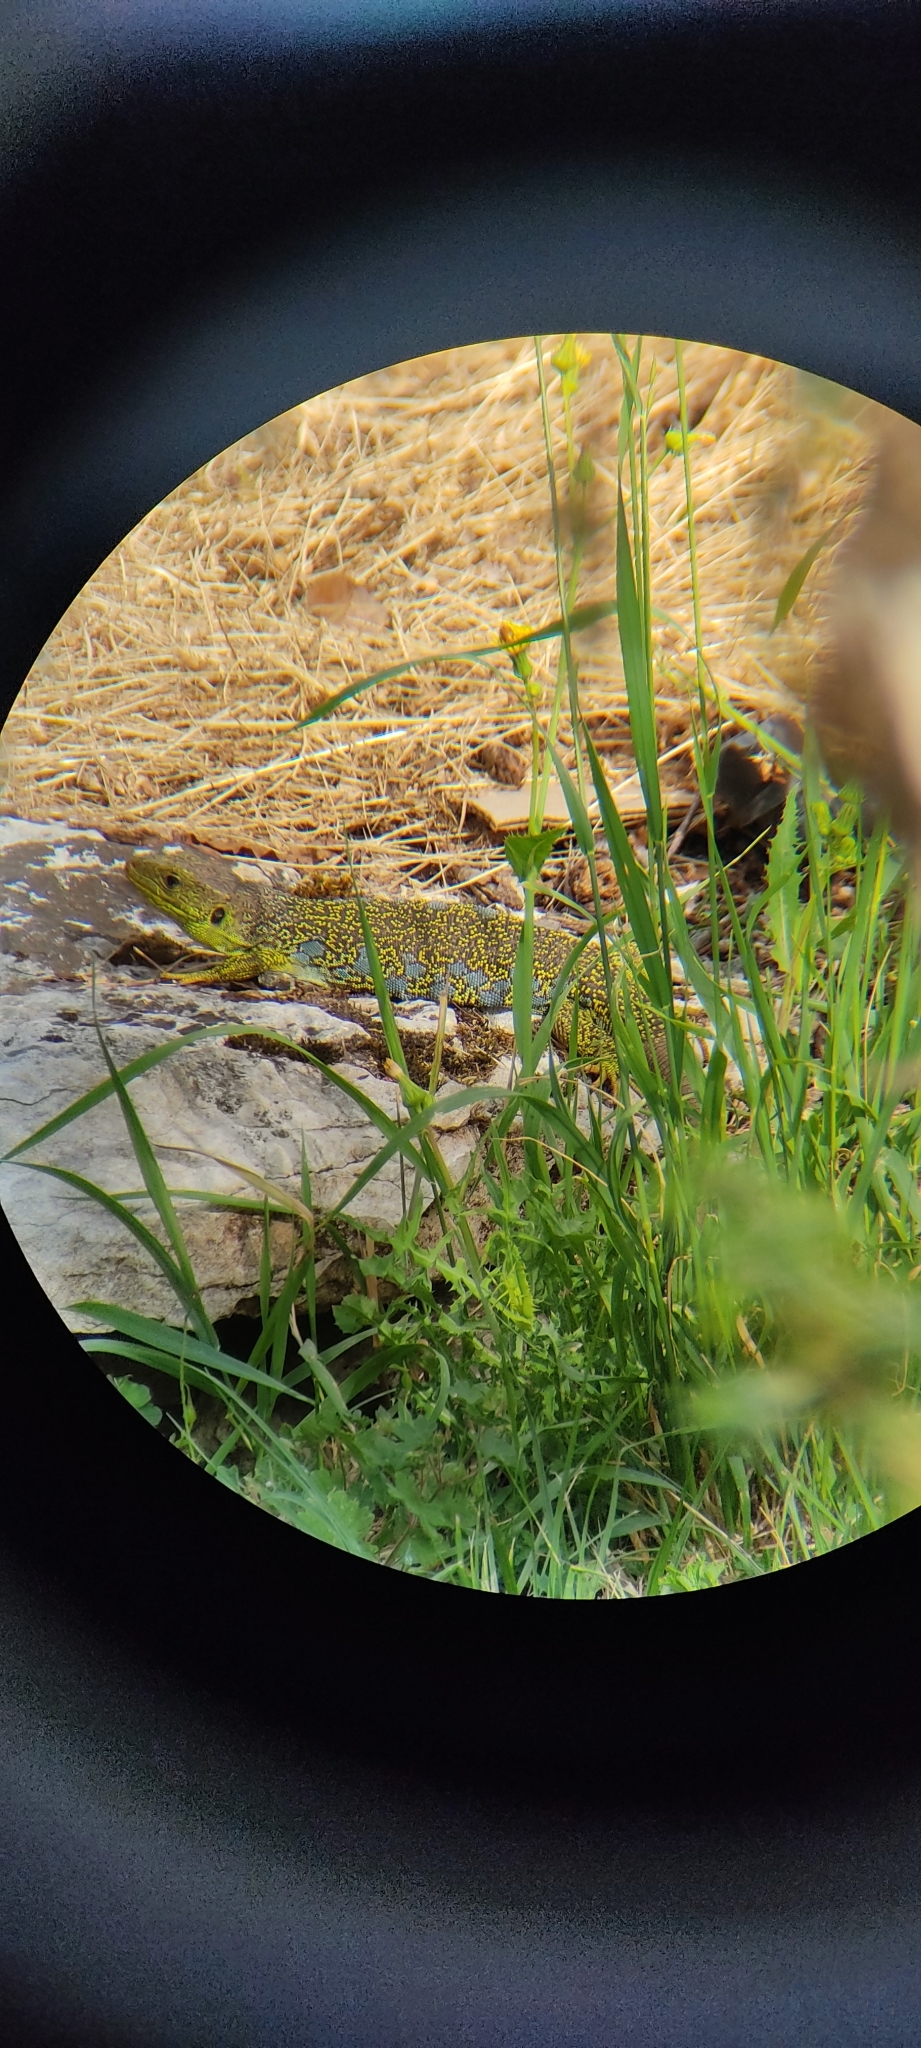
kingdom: Animalia
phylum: Chordata
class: Squamata
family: Lacertidae
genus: Timon
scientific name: Timon lepidus
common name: Ocellated lizard
